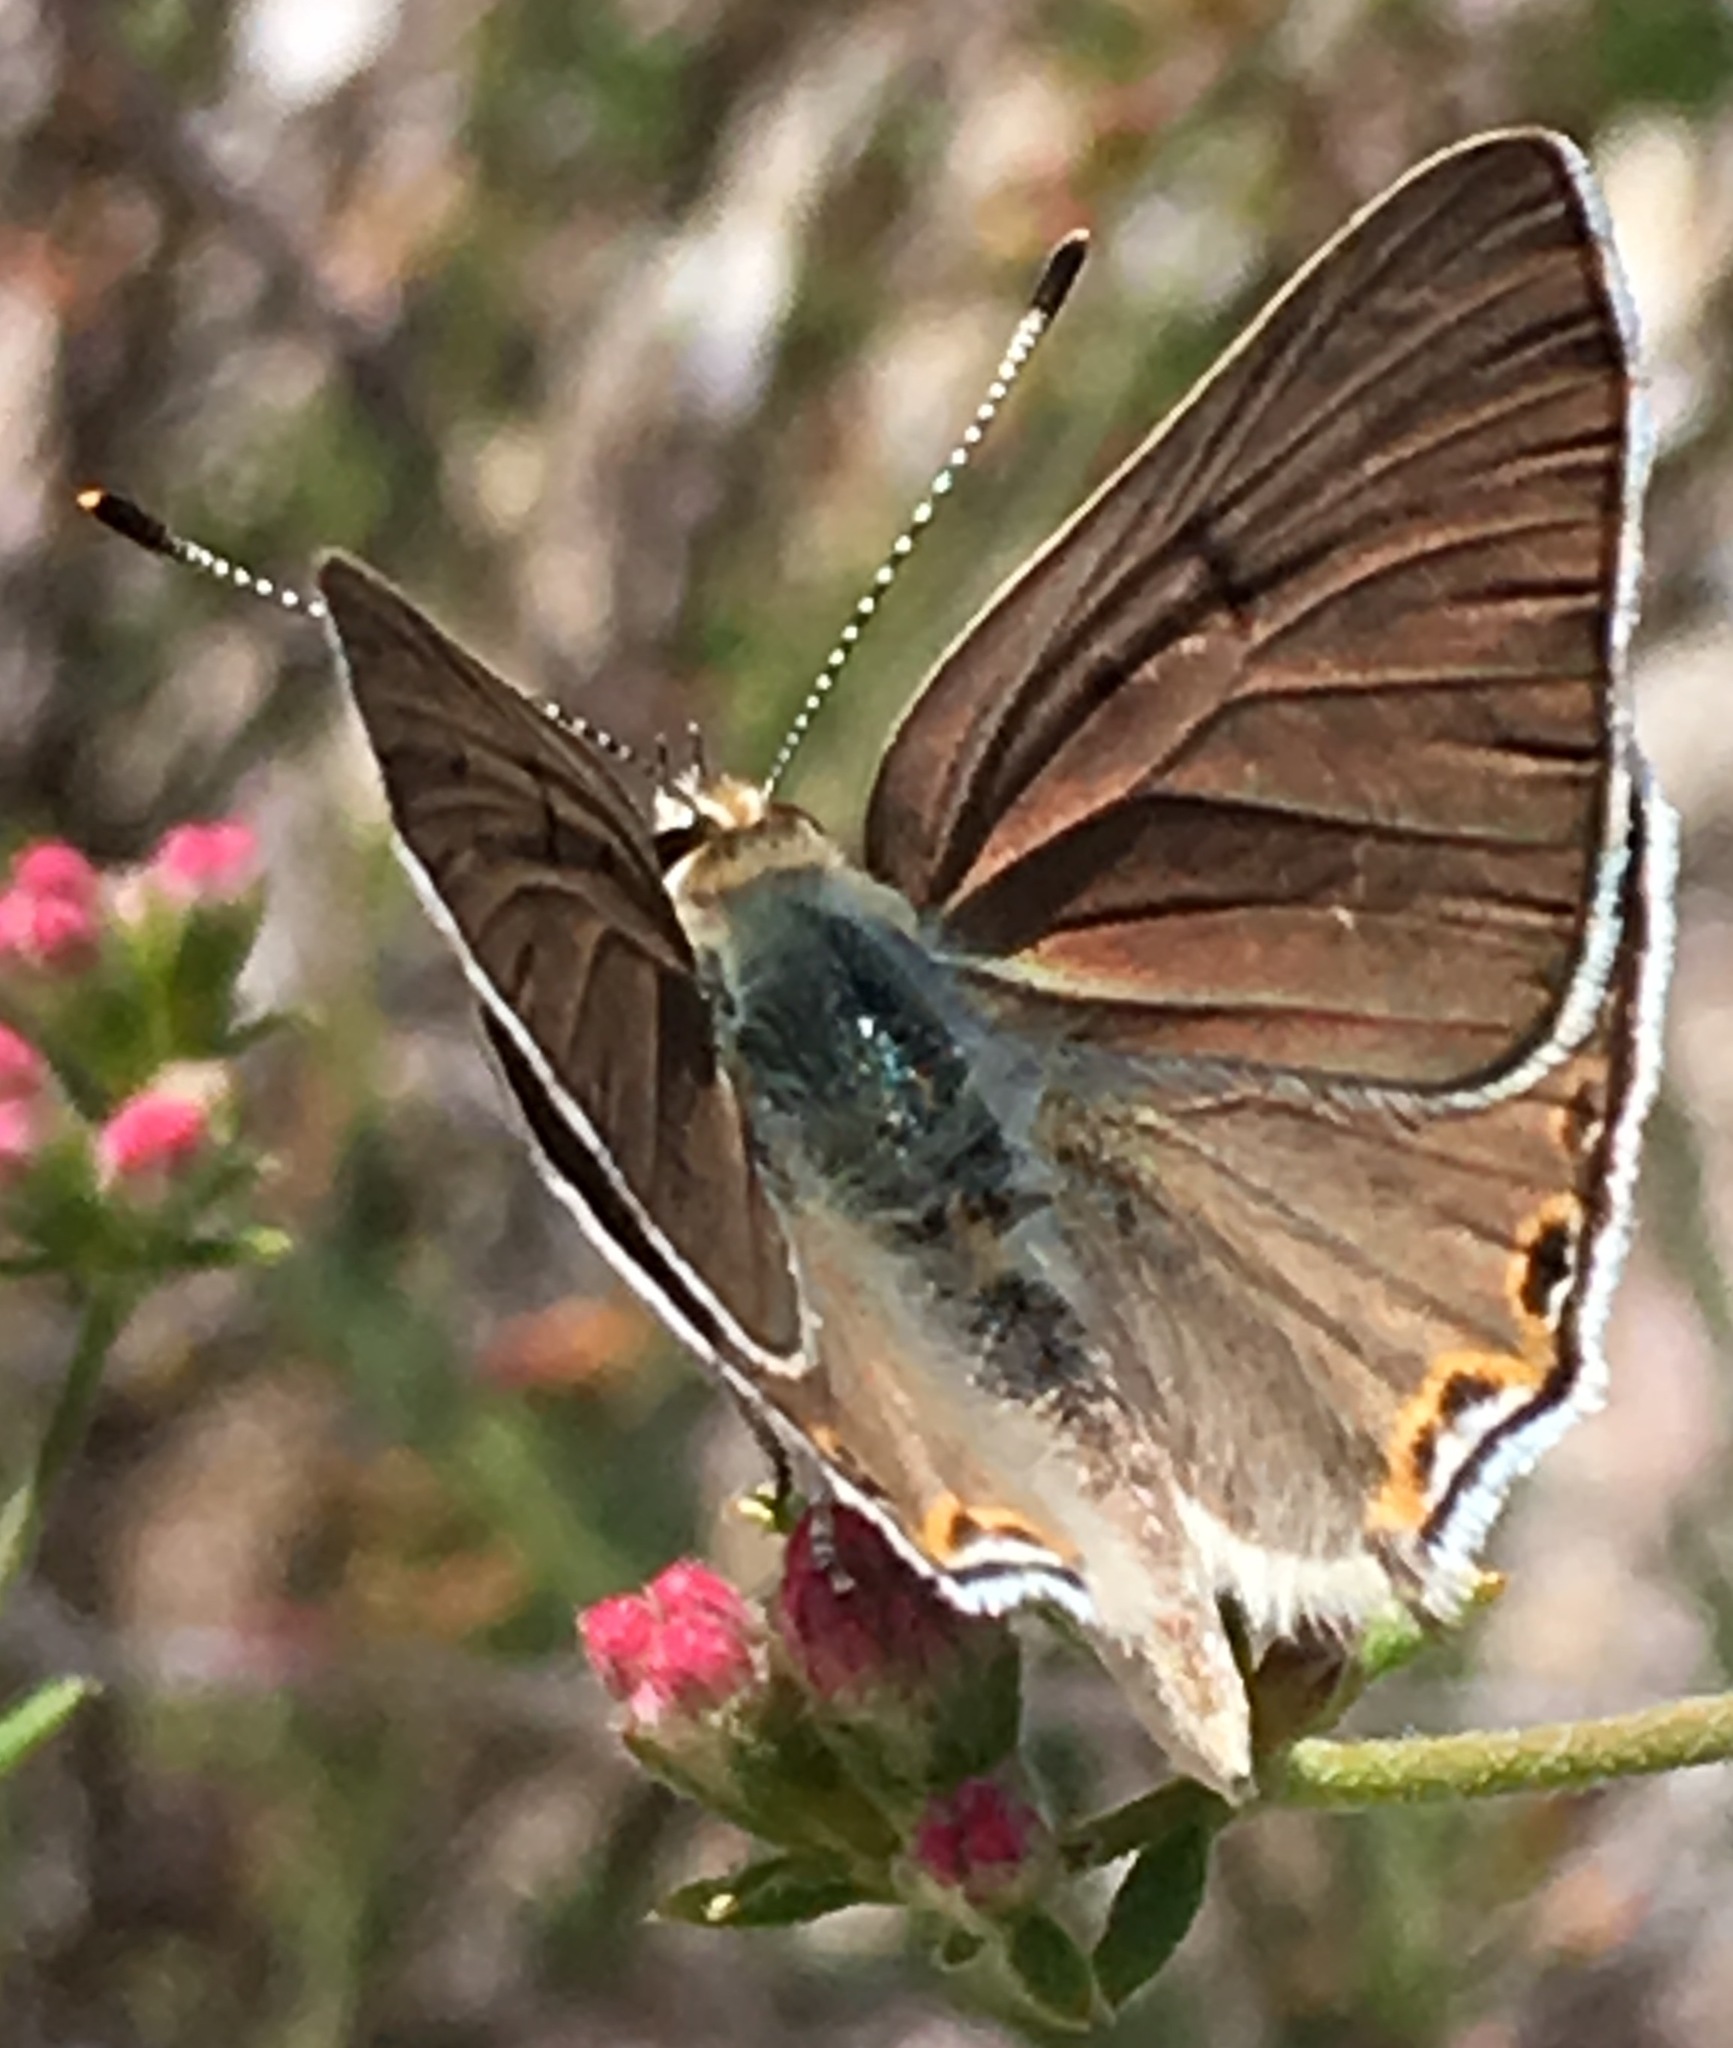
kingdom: Animalia
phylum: Arthropoda
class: Insecta
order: Lepidoptera
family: Lycaenidae
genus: Tharsalea
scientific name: Tharsalea xanthoides
